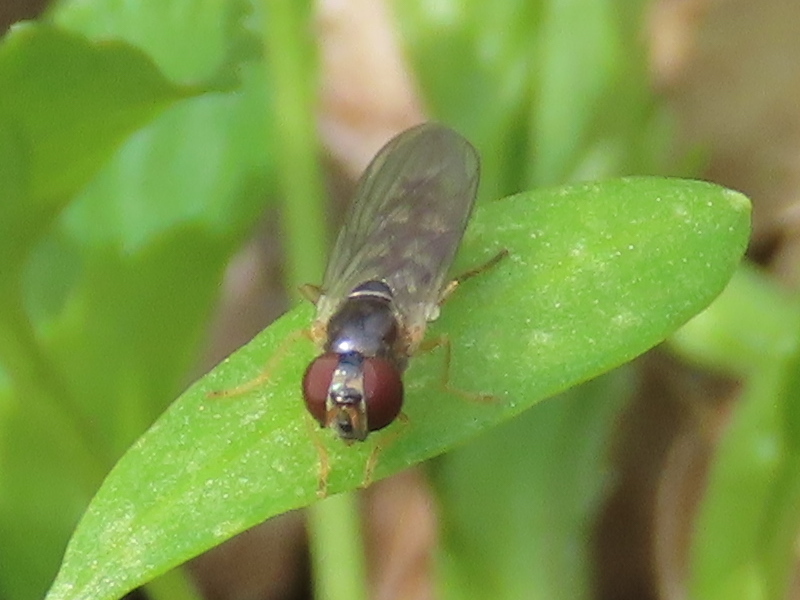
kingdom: Animalia
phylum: Arthropoda
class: Insecta
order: Diptera
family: Syrphidae
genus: Melanostoma
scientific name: Melanostoma mellina
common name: Hover fly
